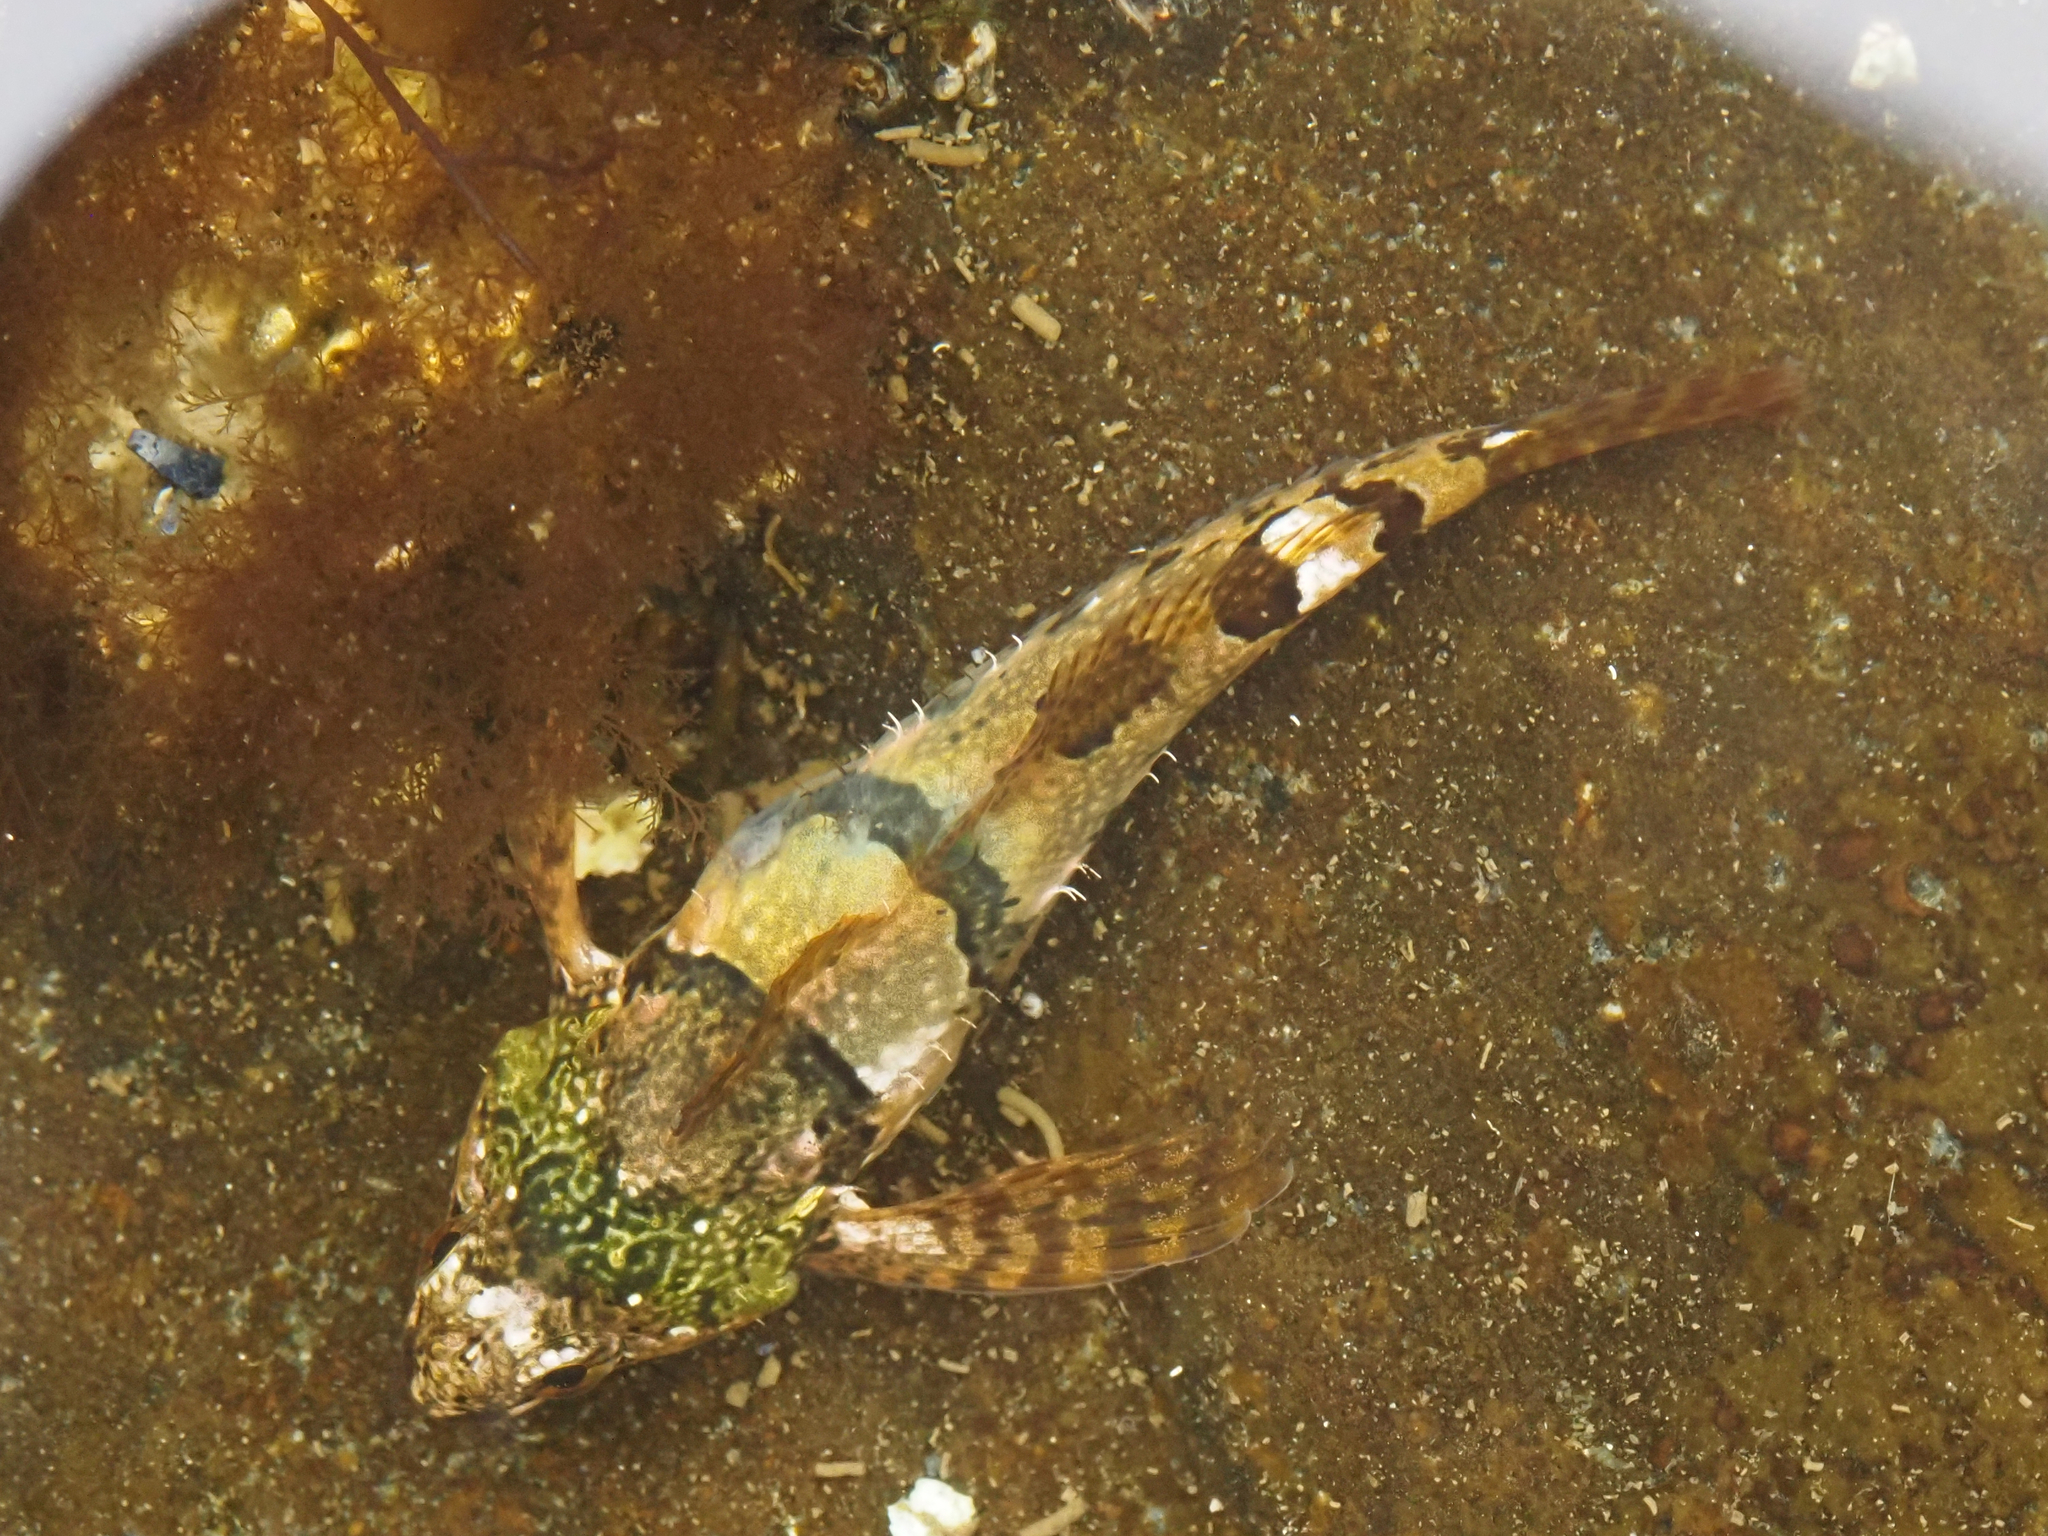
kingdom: Animalia
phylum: Chordata
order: Scorpaeniformes
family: Cottidae
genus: Oligocottus
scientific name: Oligocottus maculosus
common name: Tidepool sculpin
